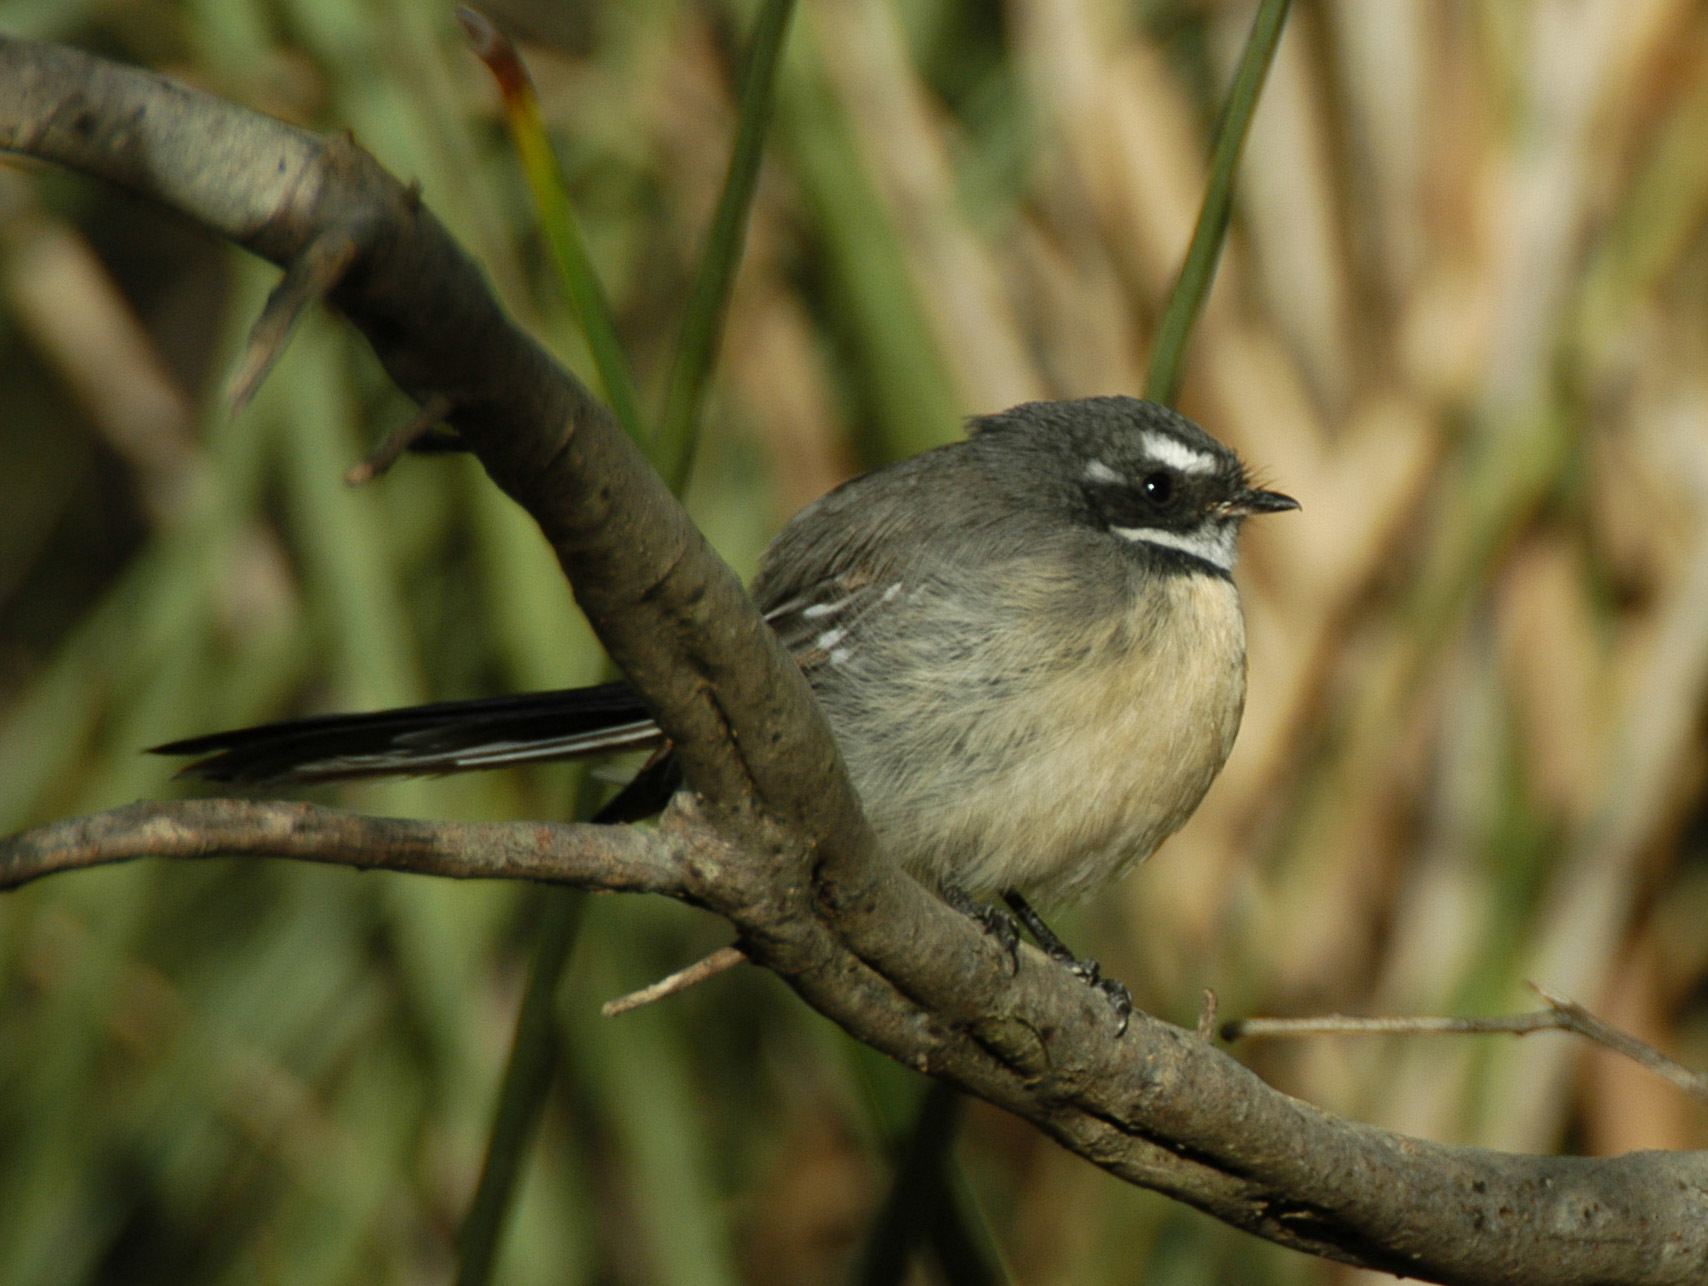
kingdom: Animalia
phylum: Chordata
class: Aves
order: Passeriformes
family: Rhipiduridae
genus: Rhipidura
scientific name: Rhipidura albiscapa
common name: Grey fantail
